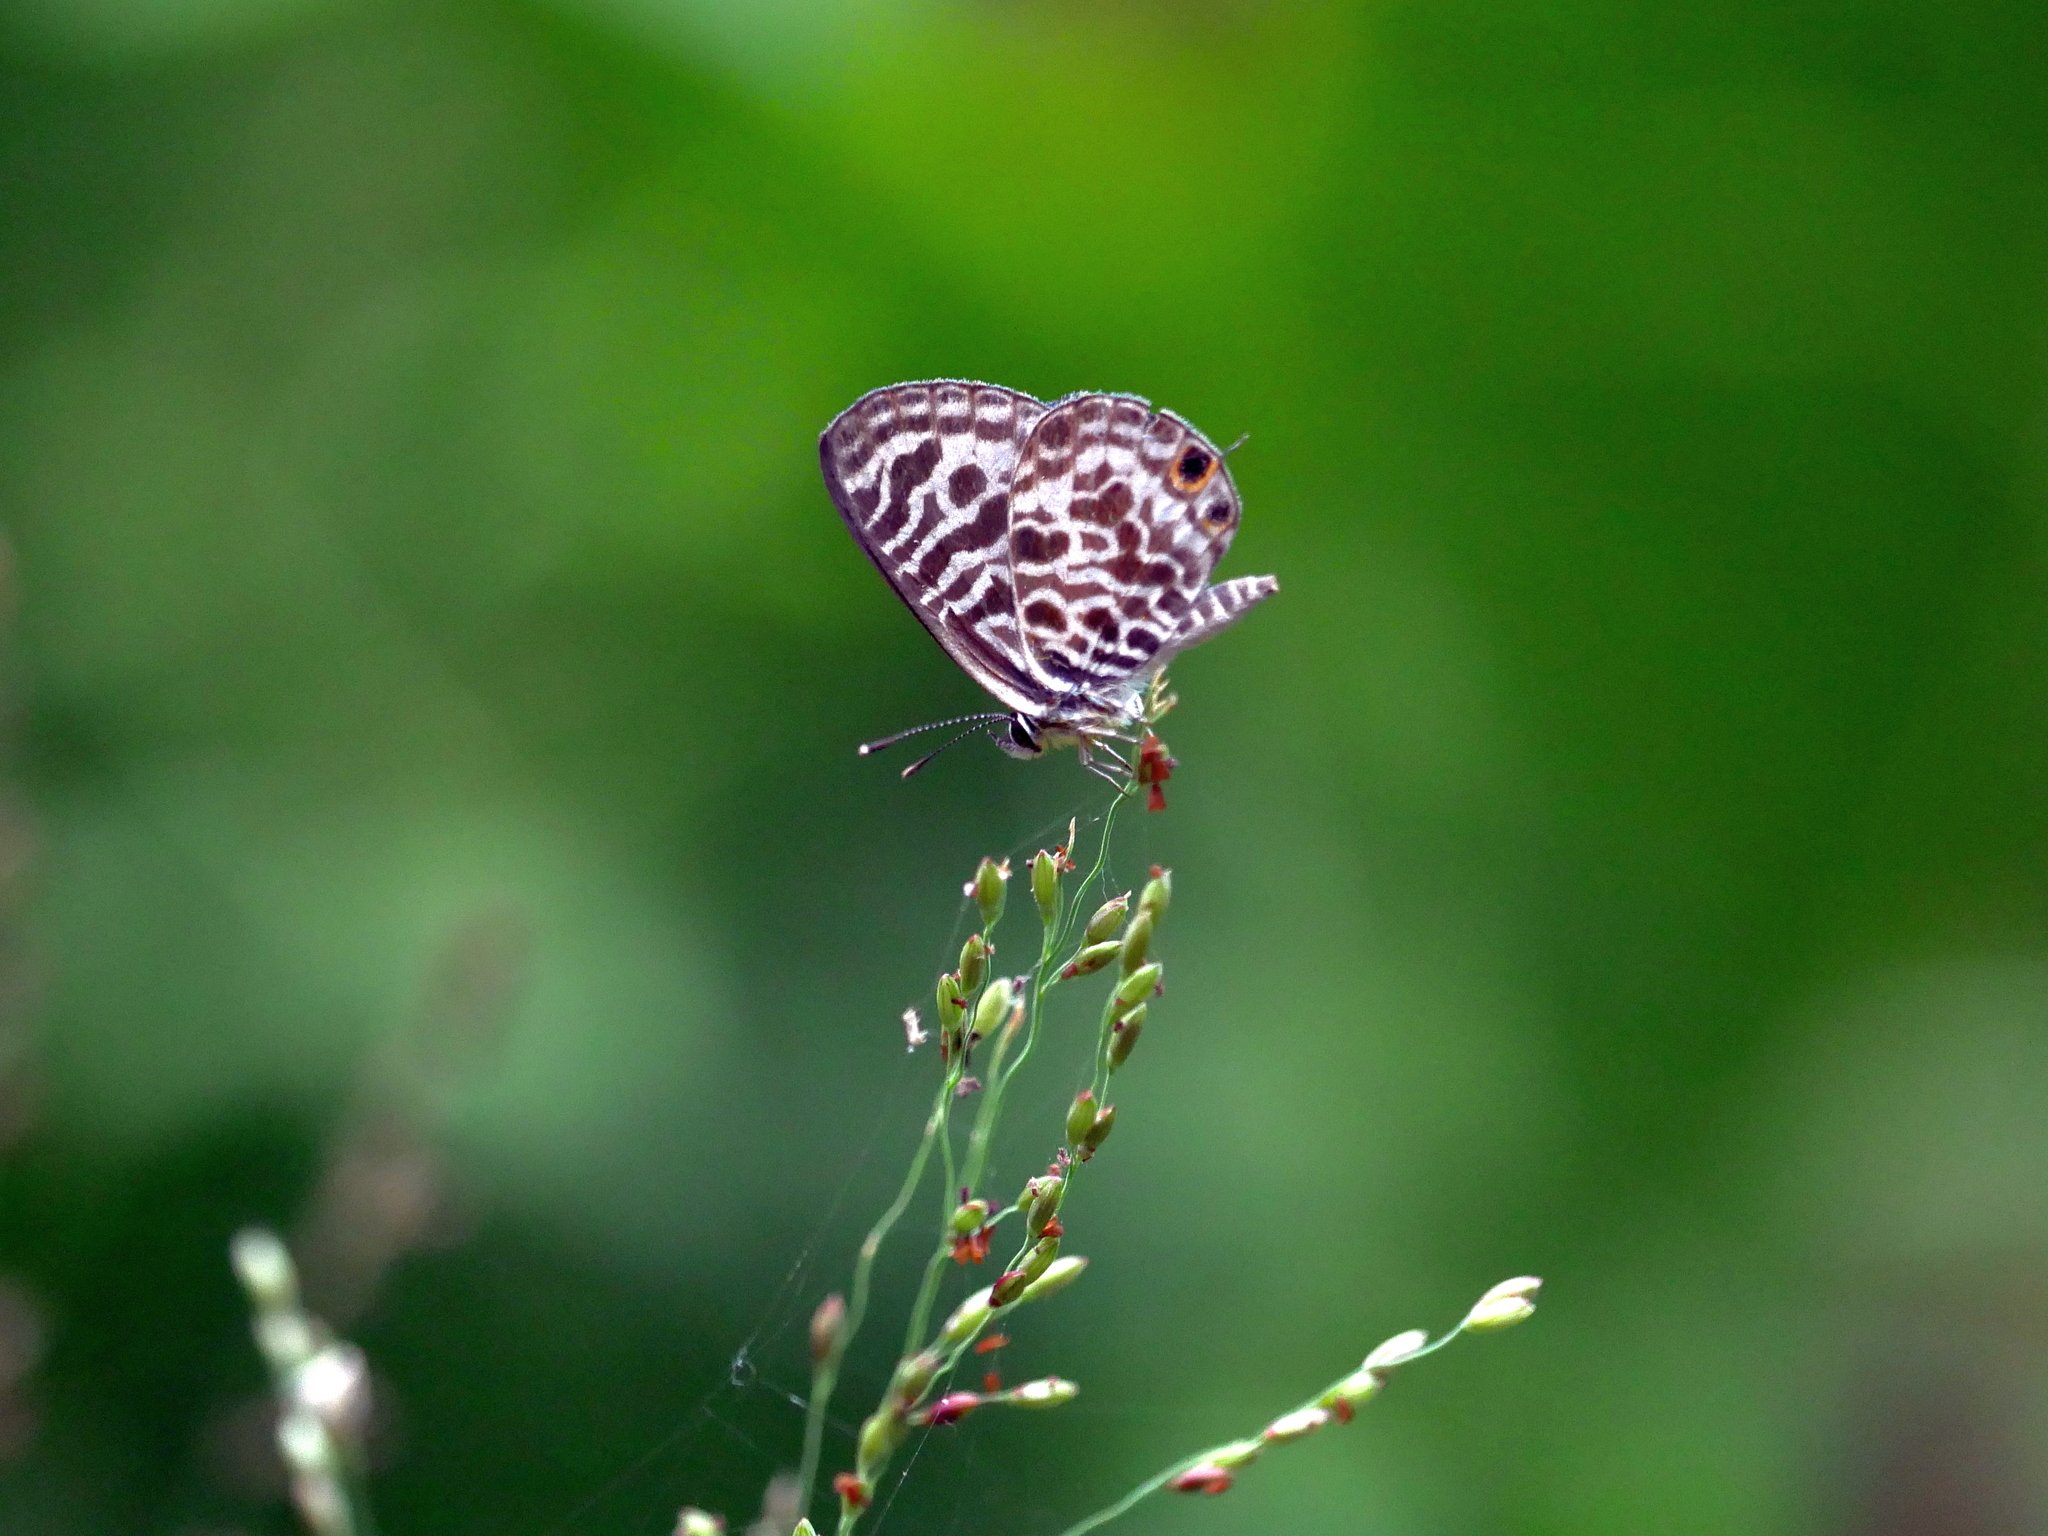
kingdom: Animalia
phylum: Arthropoda
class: Insecta
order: Lepidoptera
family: Lycaenidae
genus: Leptotes
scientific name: Leptotes plinius
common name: Zebra blue
